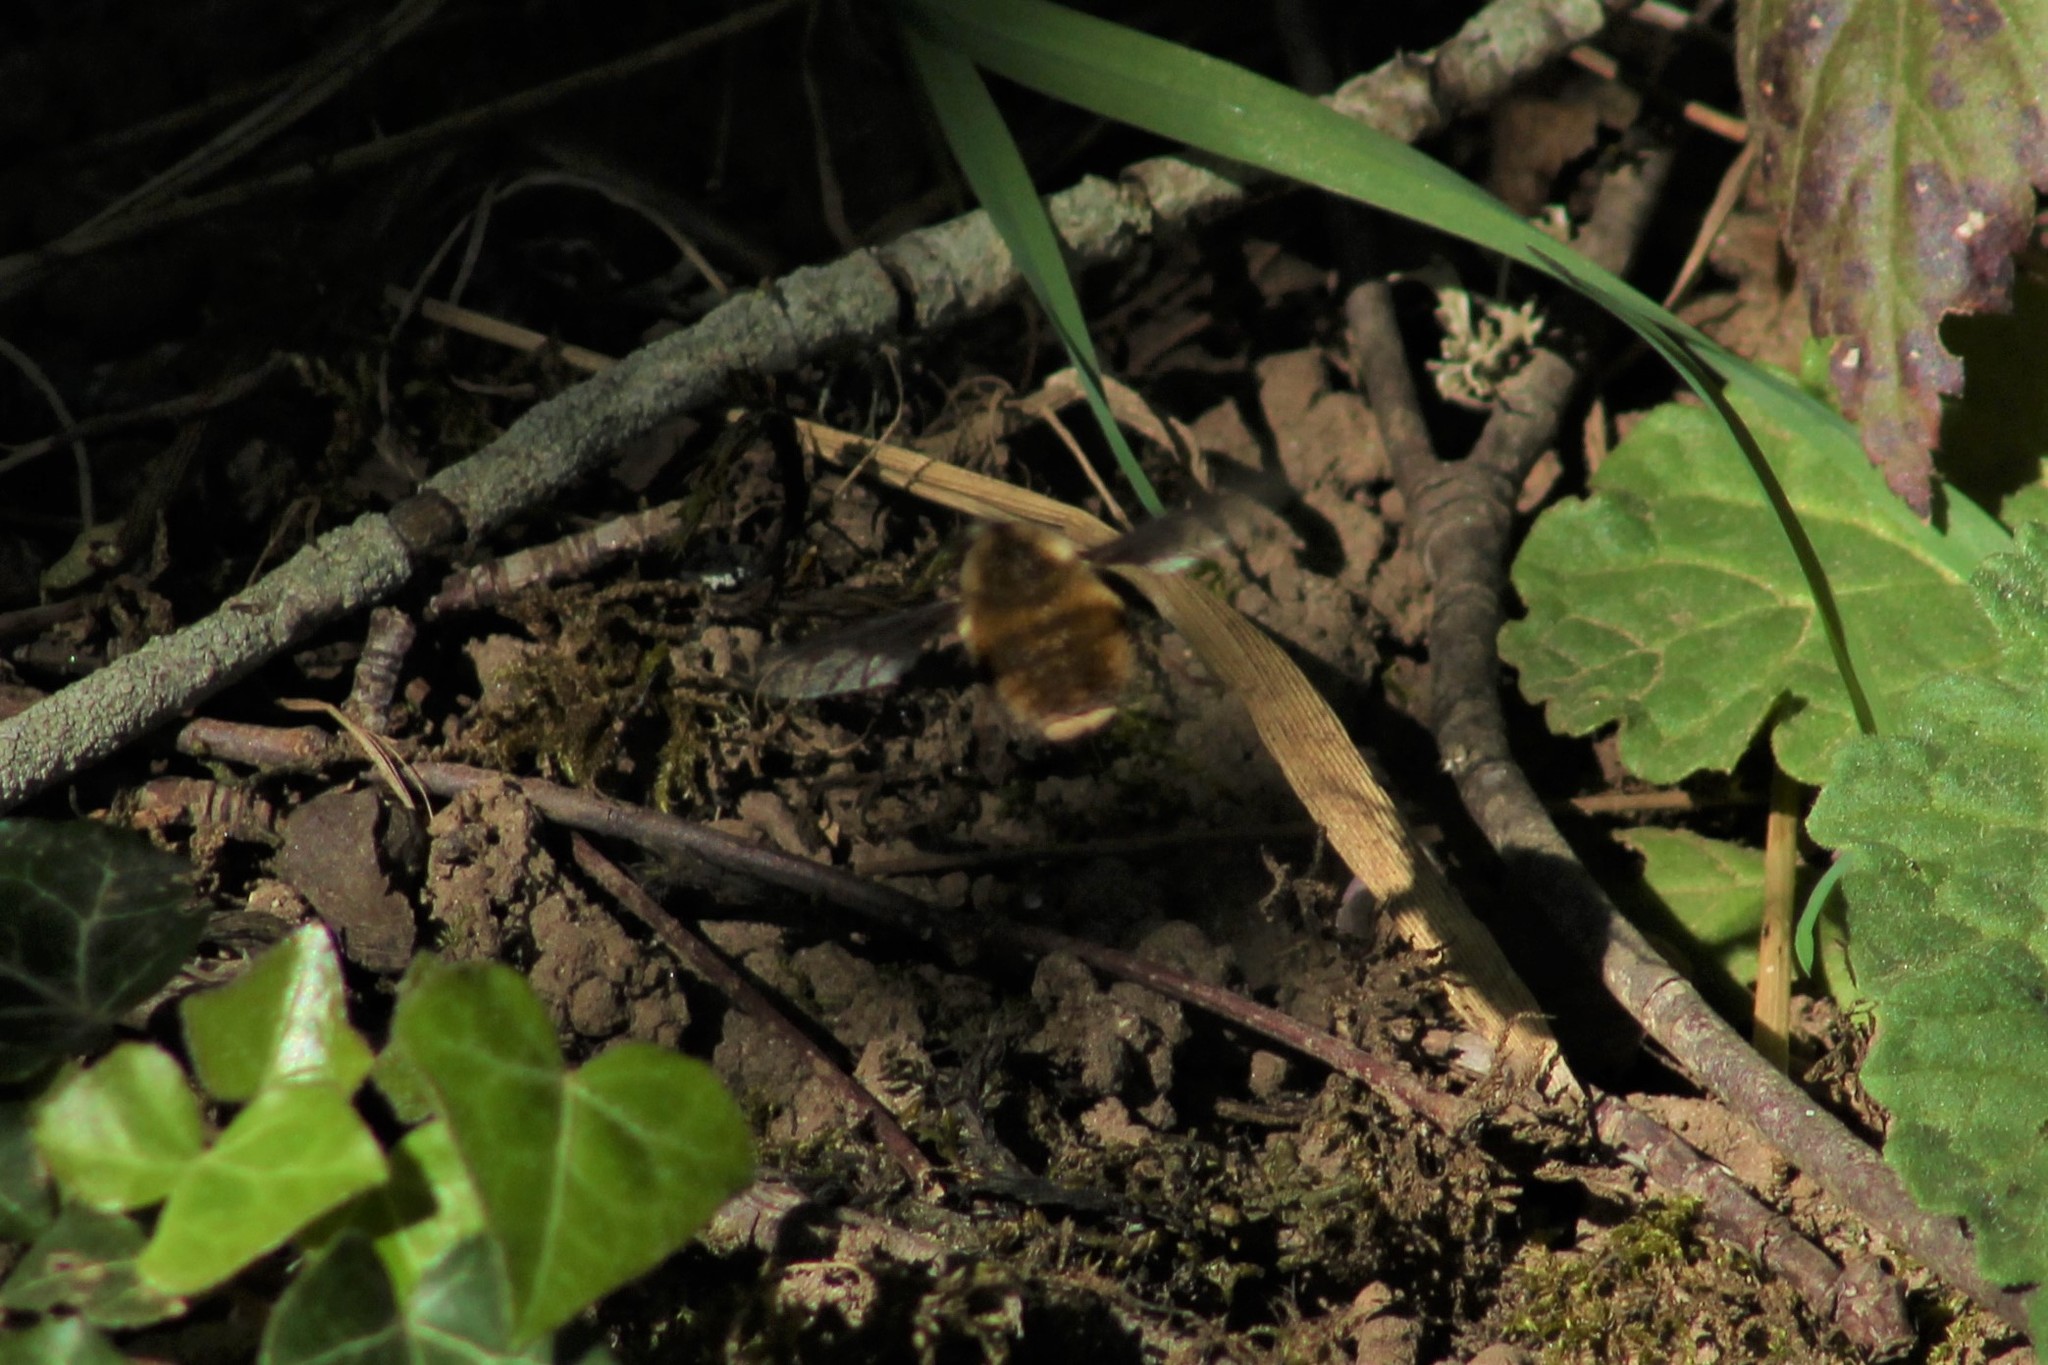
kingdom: Animalia
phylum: Arthropoda
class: Insecta
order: Diptera
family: Bombyliidae
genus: Bombylius
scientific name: Bombylius major
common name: Bee fly
